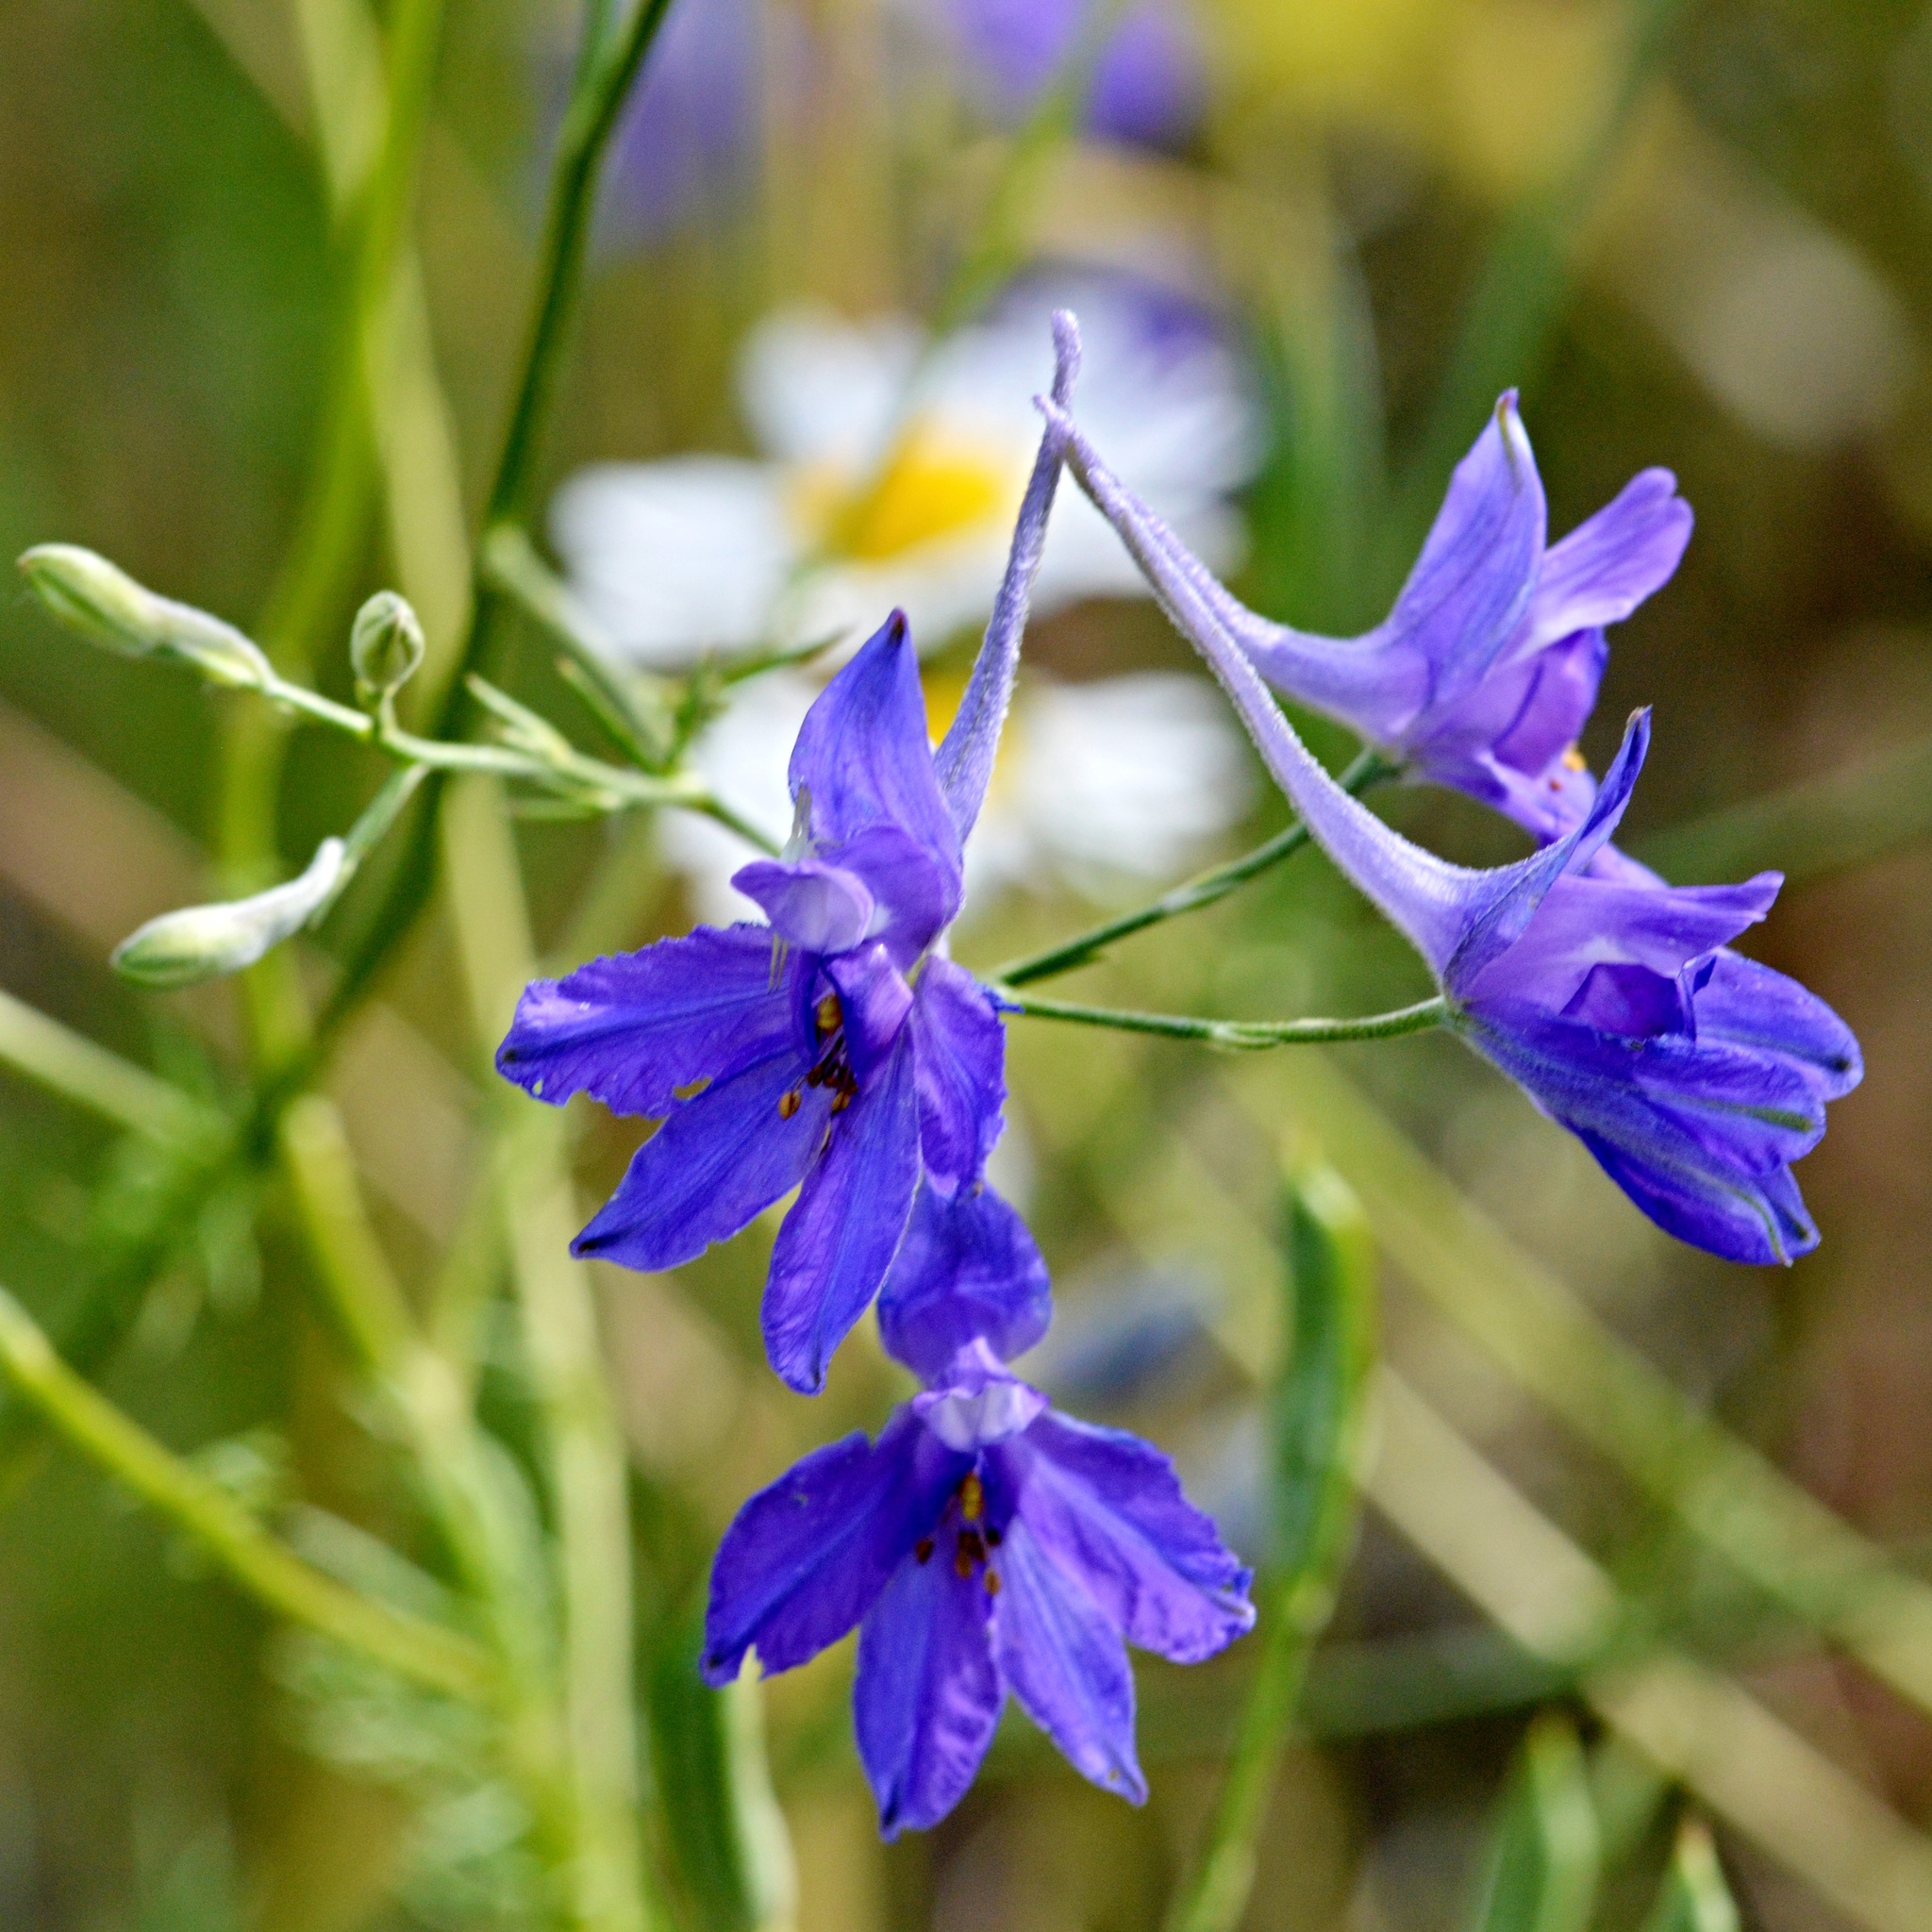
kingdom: Plantae
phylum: Tracheophyta
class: Magnoliopsida
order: Ranunculales
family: Ranunculaceae
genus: Delphinium
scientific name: Delphinium consolida
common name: Branching larkspur
